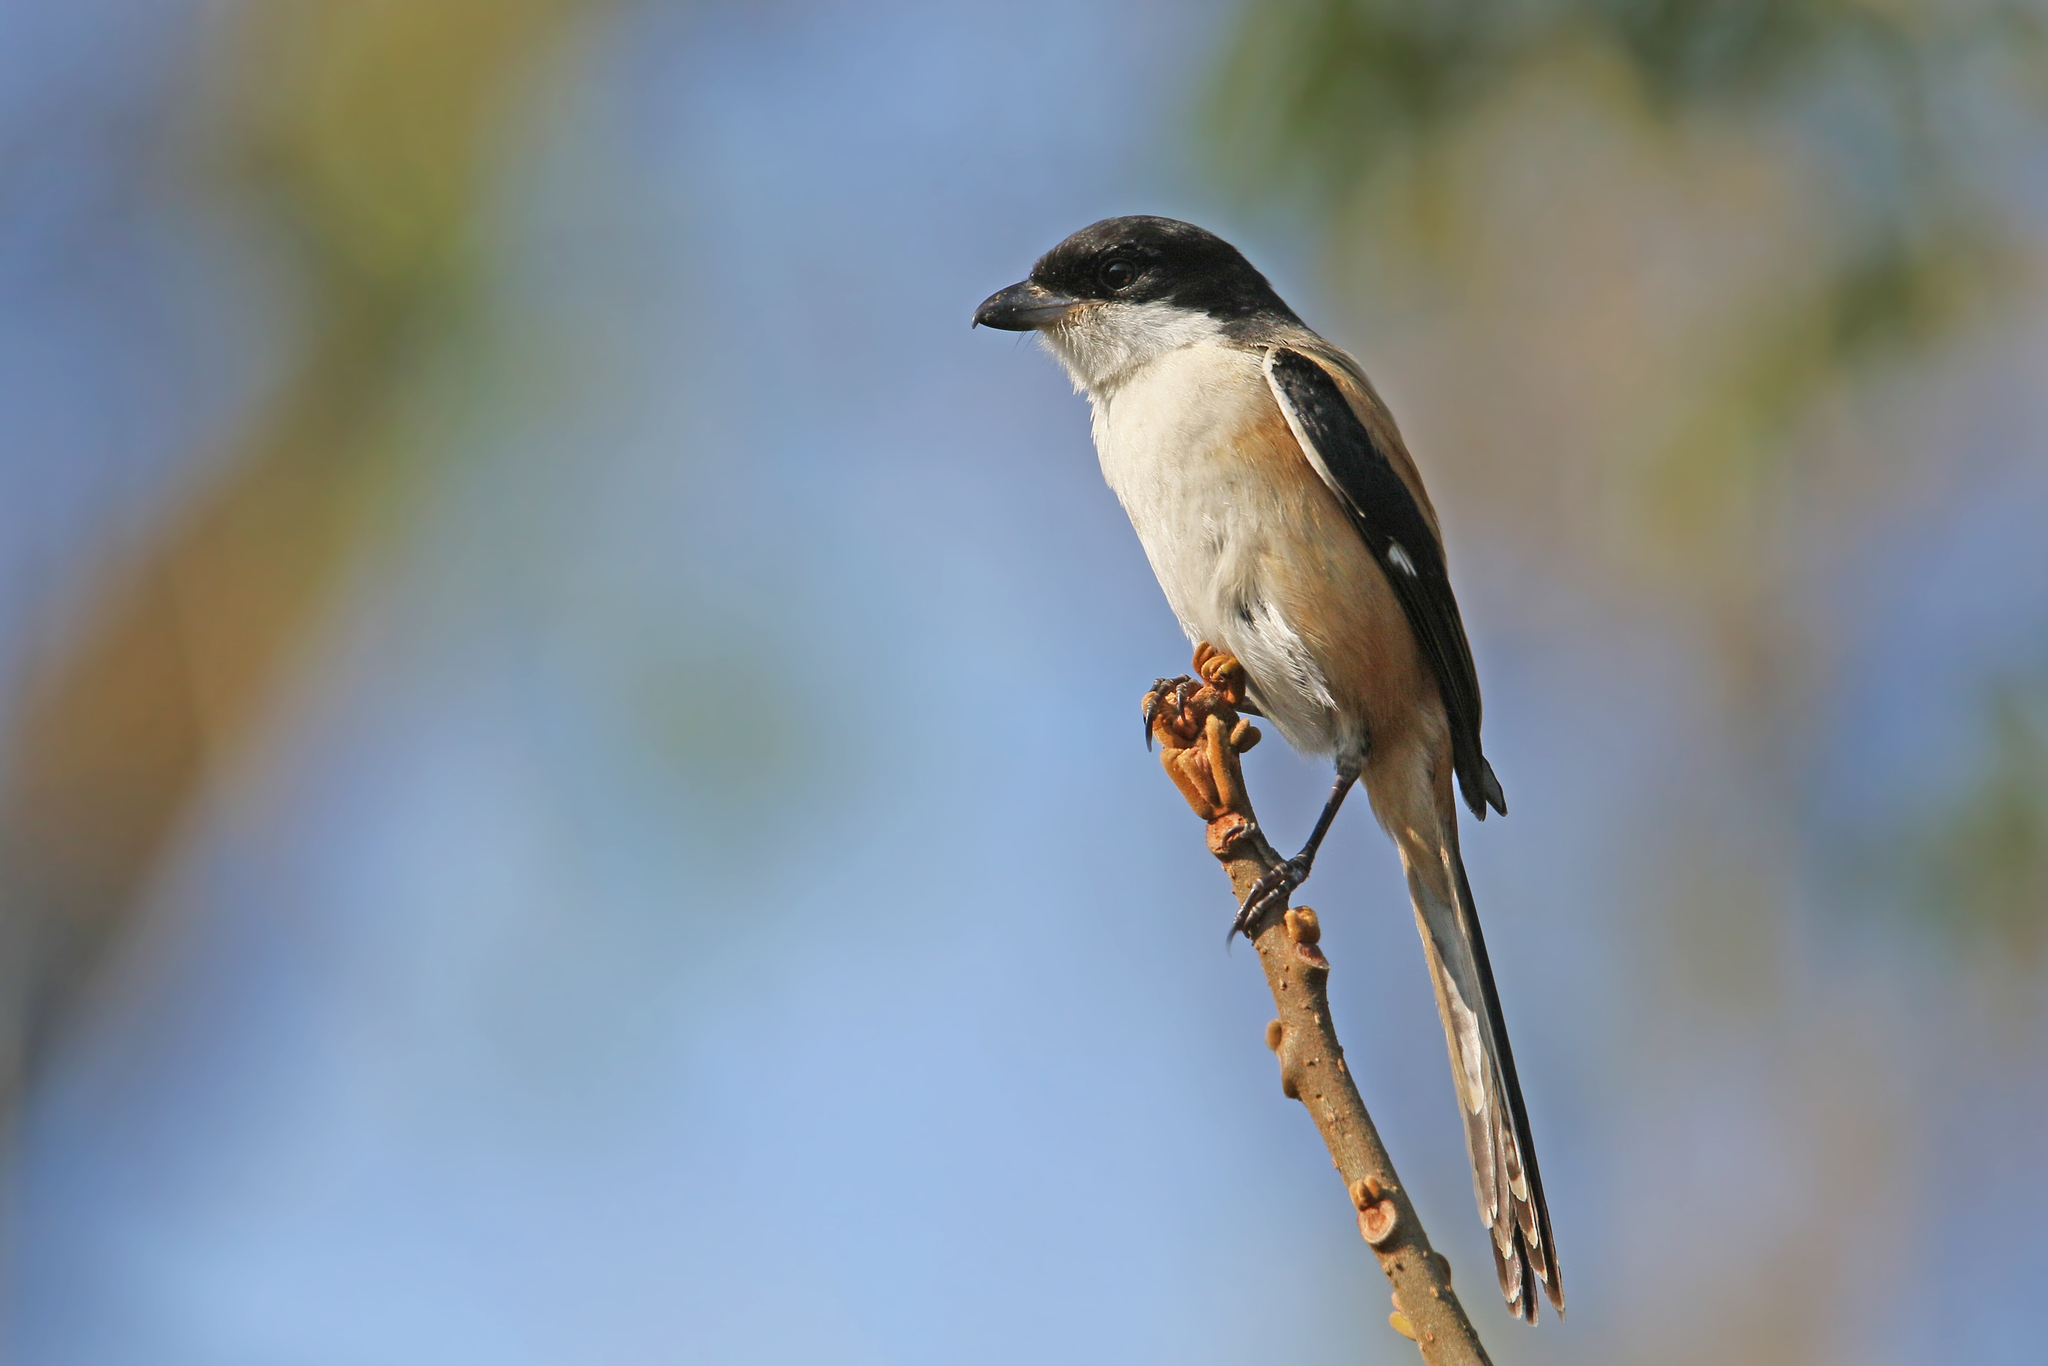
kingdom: Animalia
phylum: Chordata
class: Aves
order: Passeriformes
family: Laniidae
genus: Lanius
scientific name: Lanius schach
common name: Long-tailed shrike
